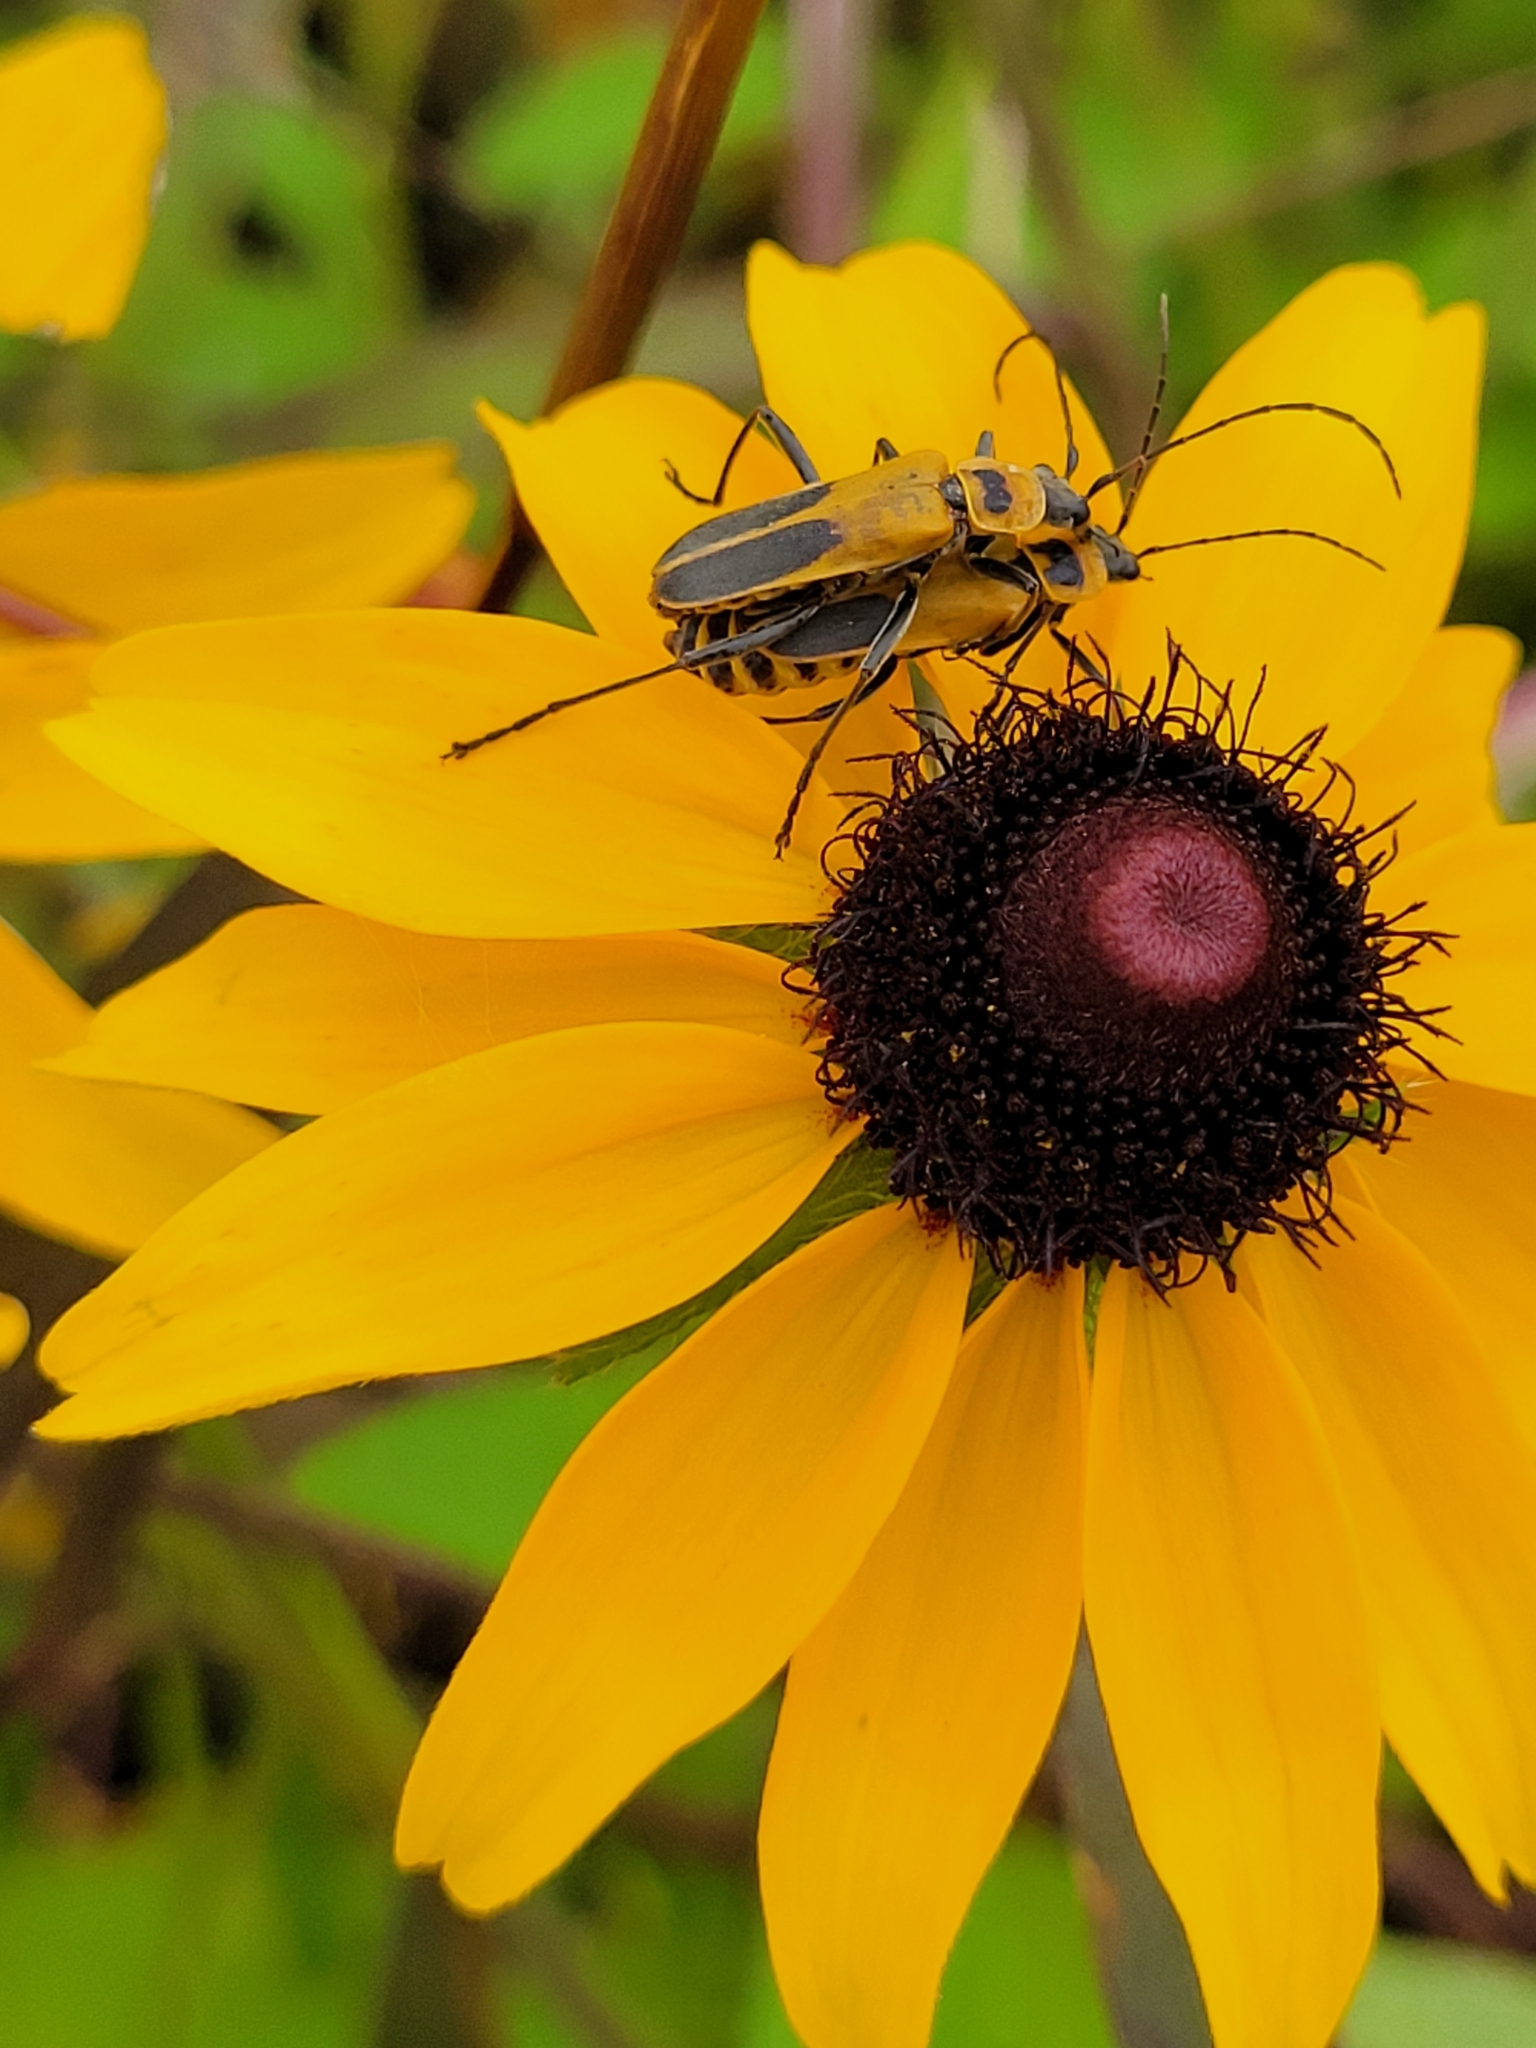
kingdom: Animalia
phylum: Arthropoda
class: Insecta
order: Coleoptera
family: Cantharidae
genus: Chauliognathus
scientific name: Chauliognathus pensylvanicus
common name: Goldenrod soldier beetle
